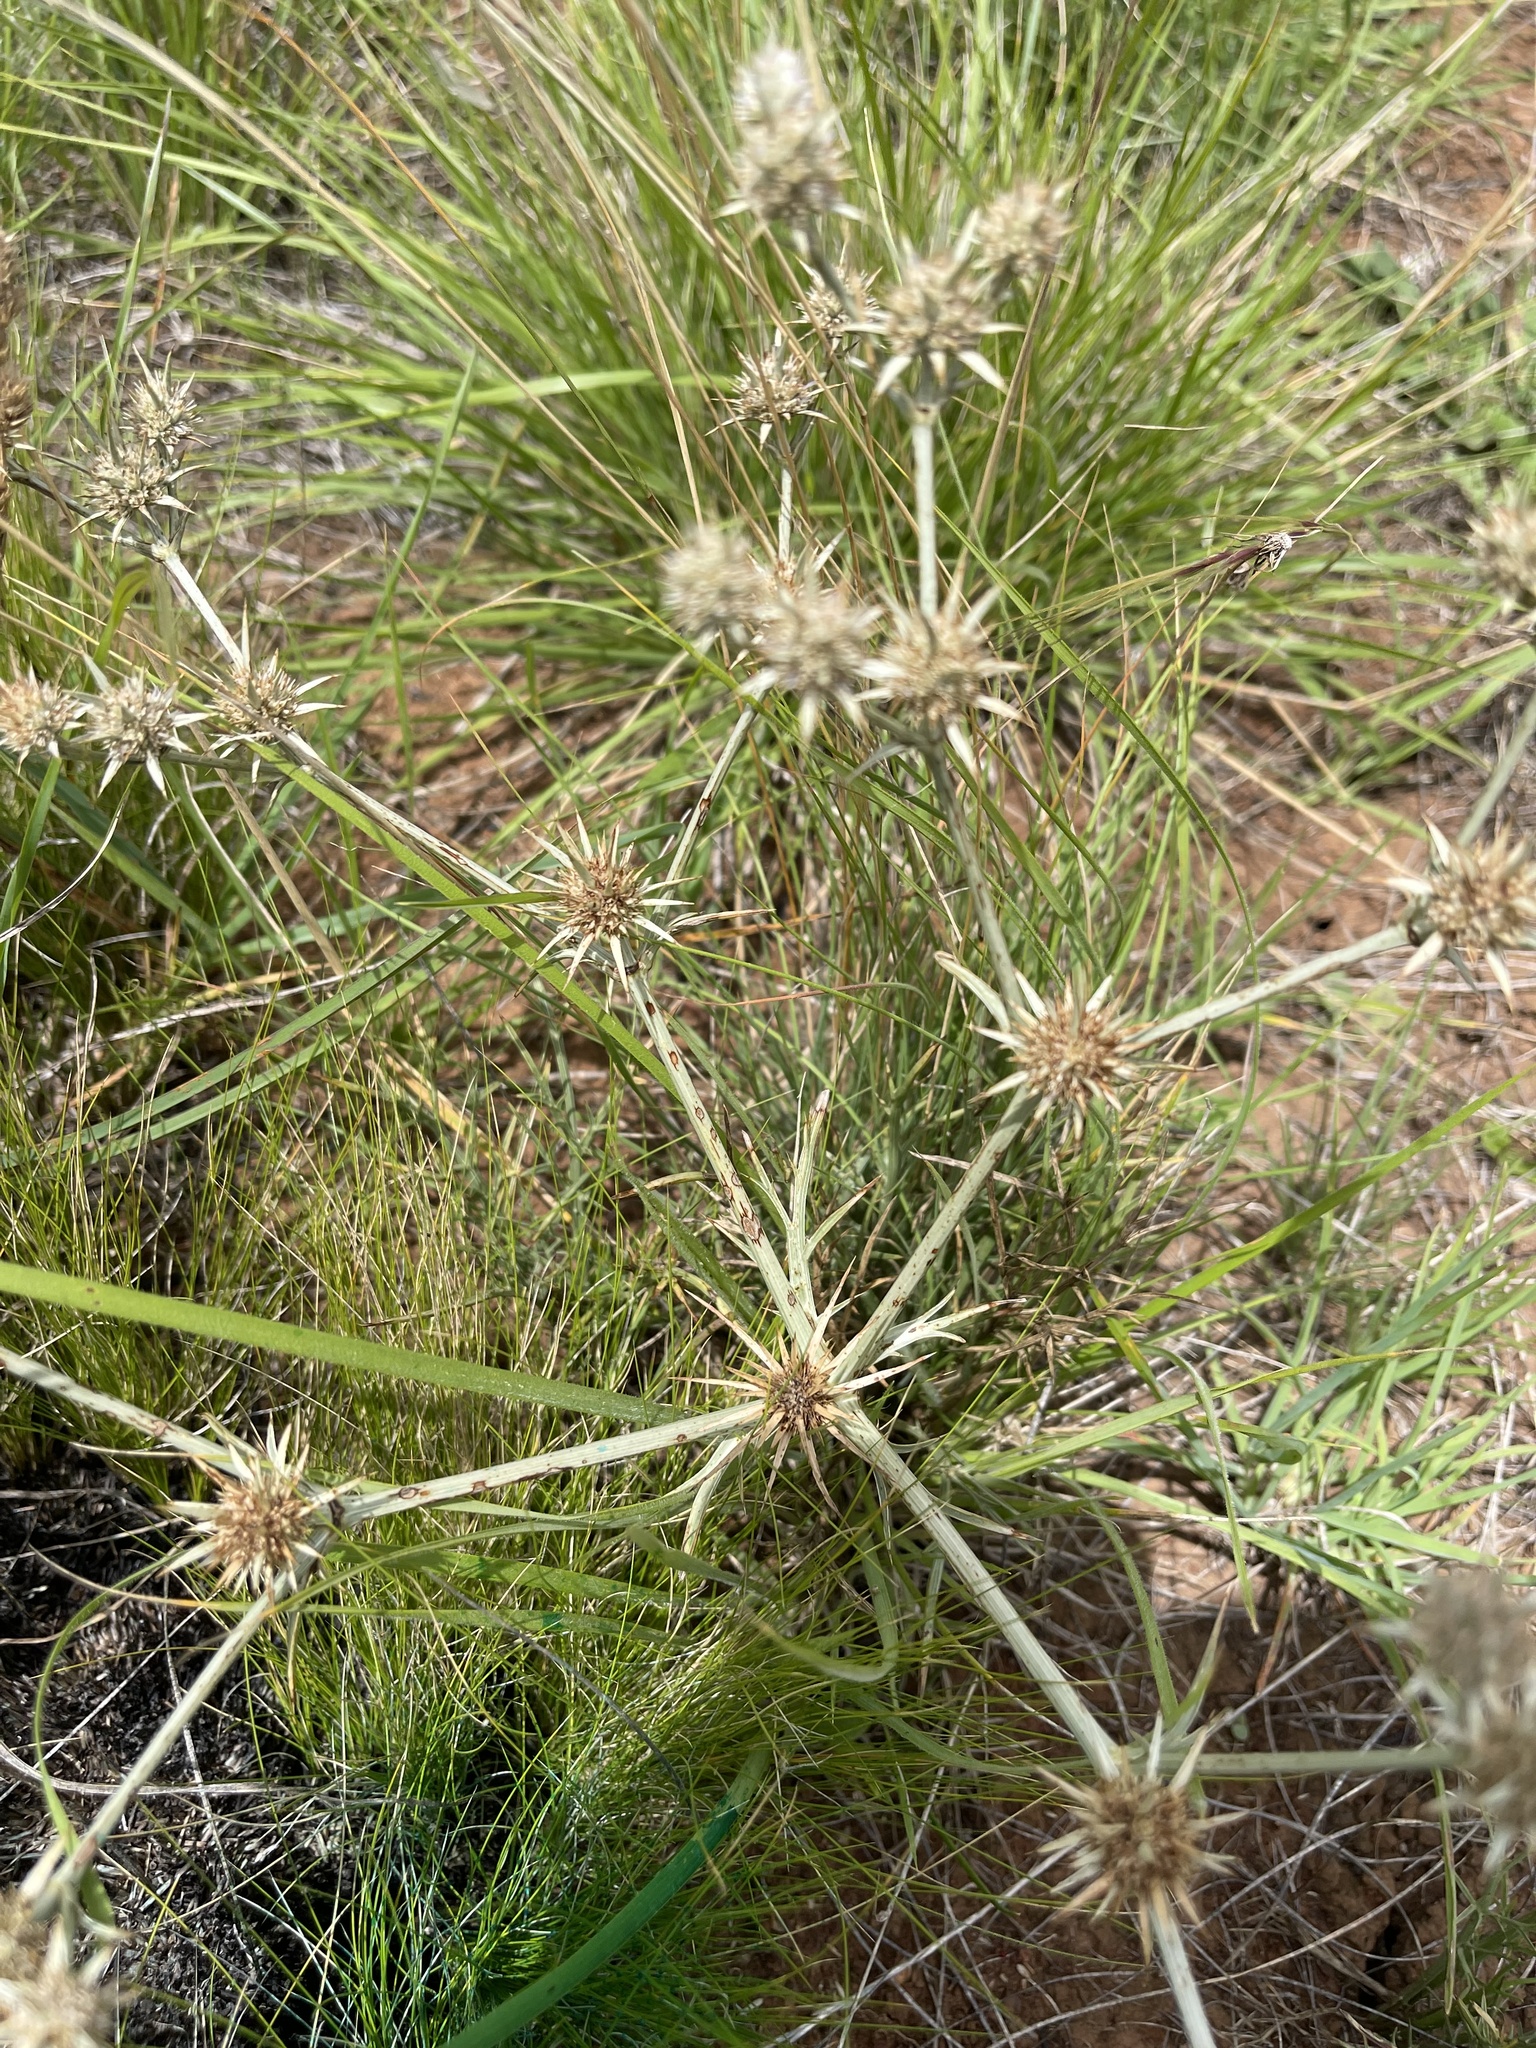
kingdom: Plantae
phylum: Tracheophyta
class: Magnoliopsida
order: Apiales
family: Apiaceae
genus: Eryngium
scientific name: Eryngium ovinum
